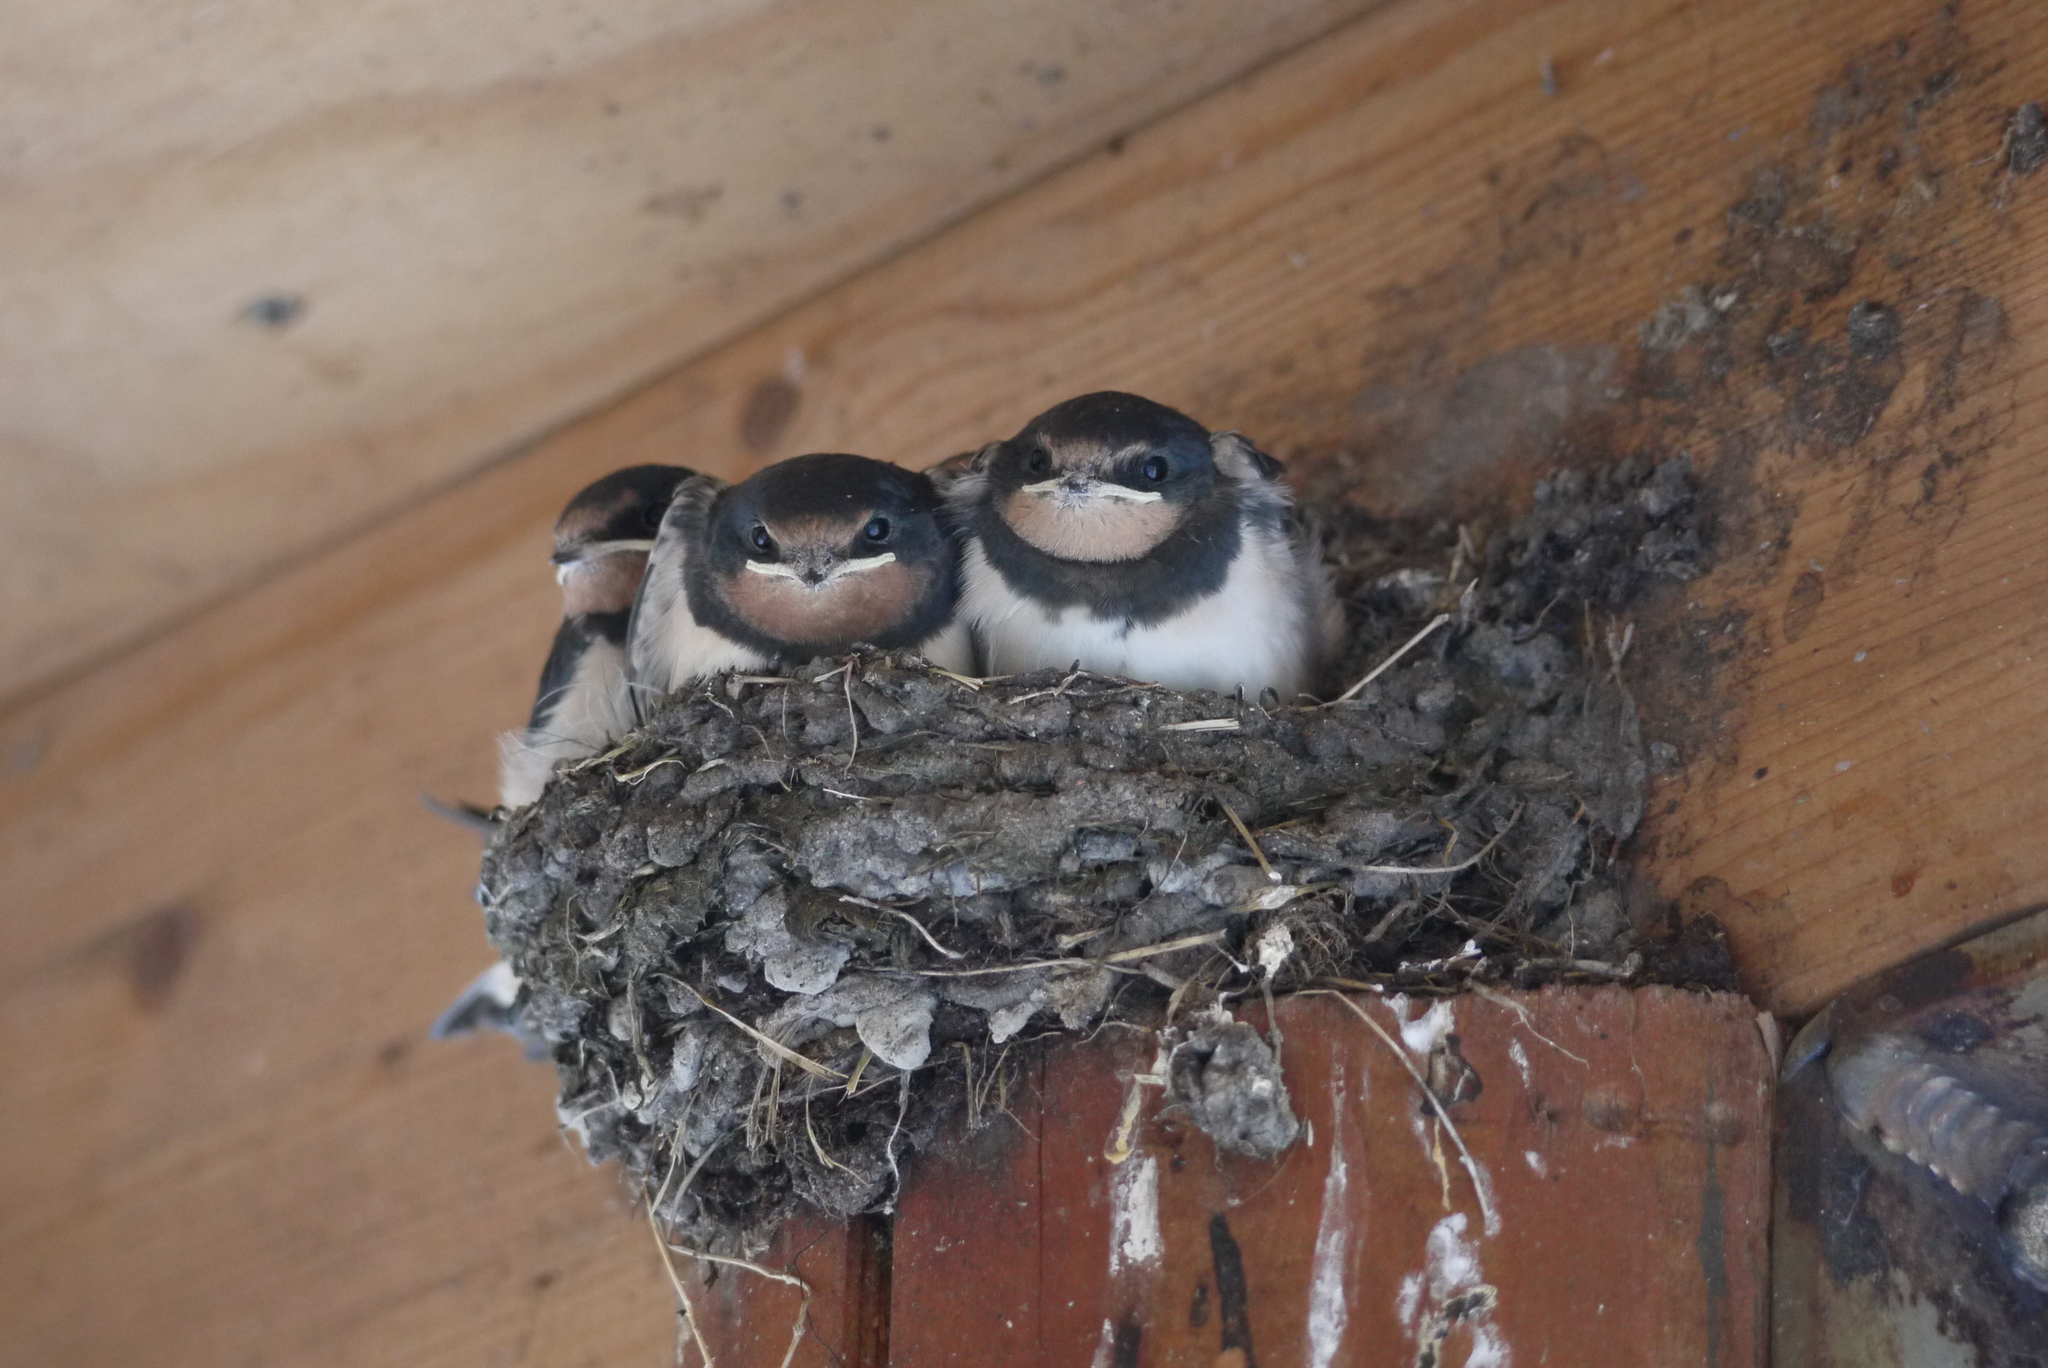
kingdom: Animalia
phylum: Chordata
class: Aves
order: Passeriformes
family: Hirundinidae
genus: Hirundo
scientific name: Hirundo rustica
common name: Barn swallow
